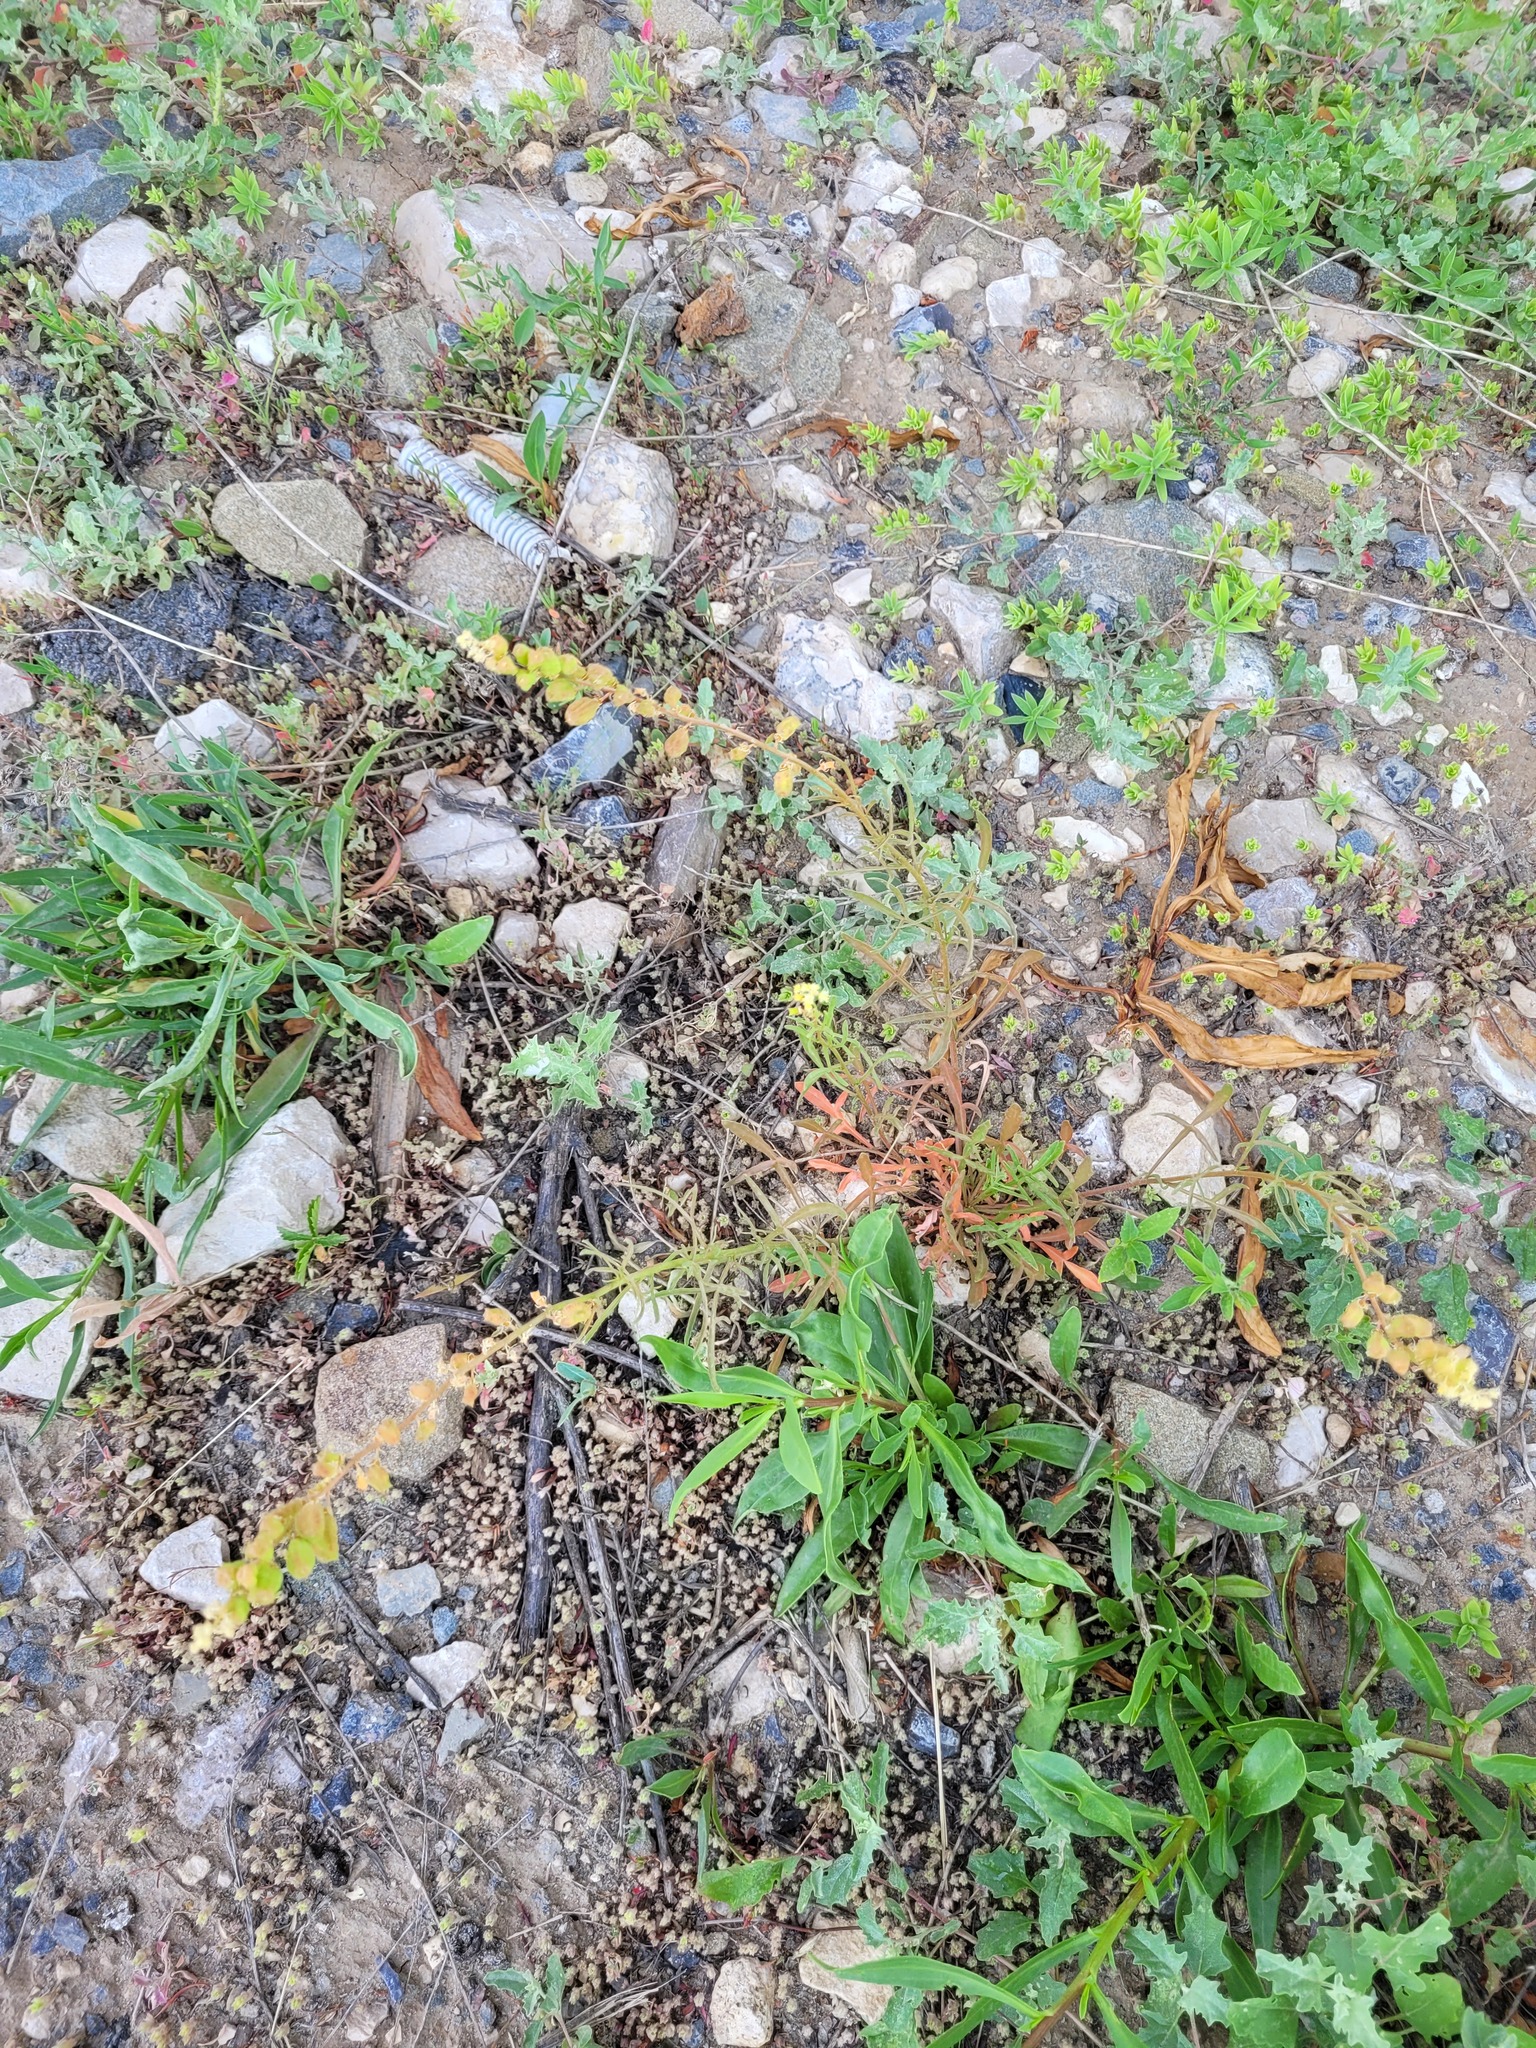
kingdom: Plantae
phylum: Tracheophyta
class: Magnoliopsida
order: Brassicales
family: Resedaceae
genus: Reseda
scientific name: Reseda lutea
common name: Wild mignonette
